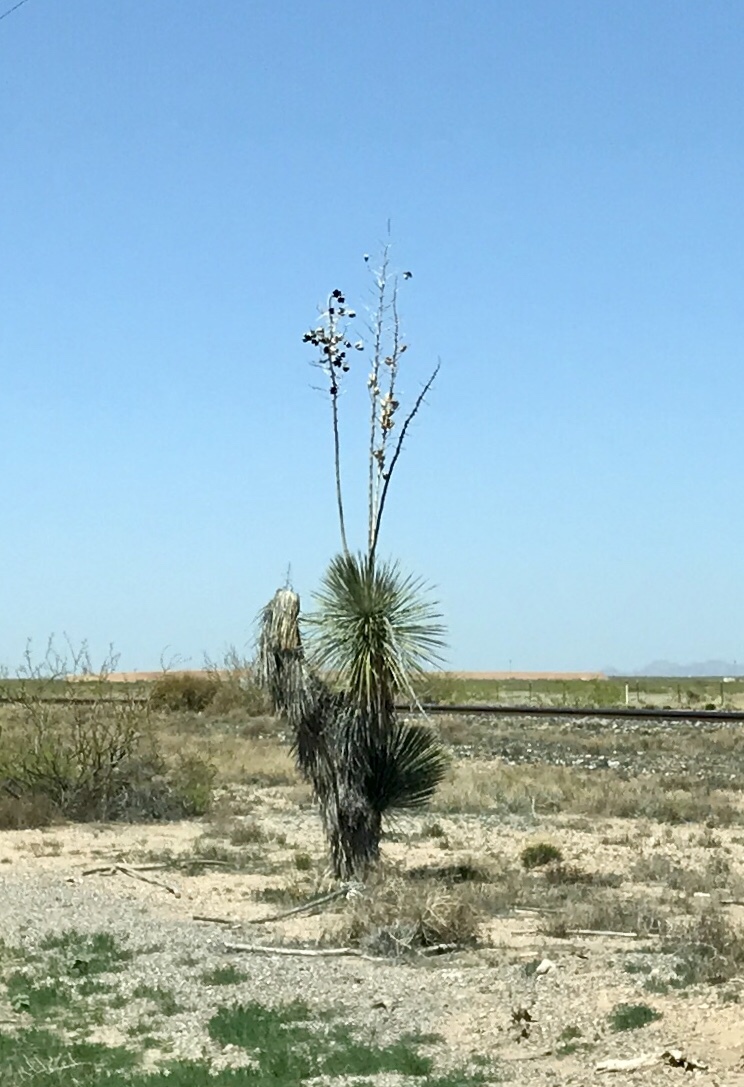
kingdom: Plantae
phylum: Tracheophyta
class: Liliopsida
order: Asparagales
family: Asparagaceae
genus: Yucca
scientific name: Yucca elata
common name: Palmella
